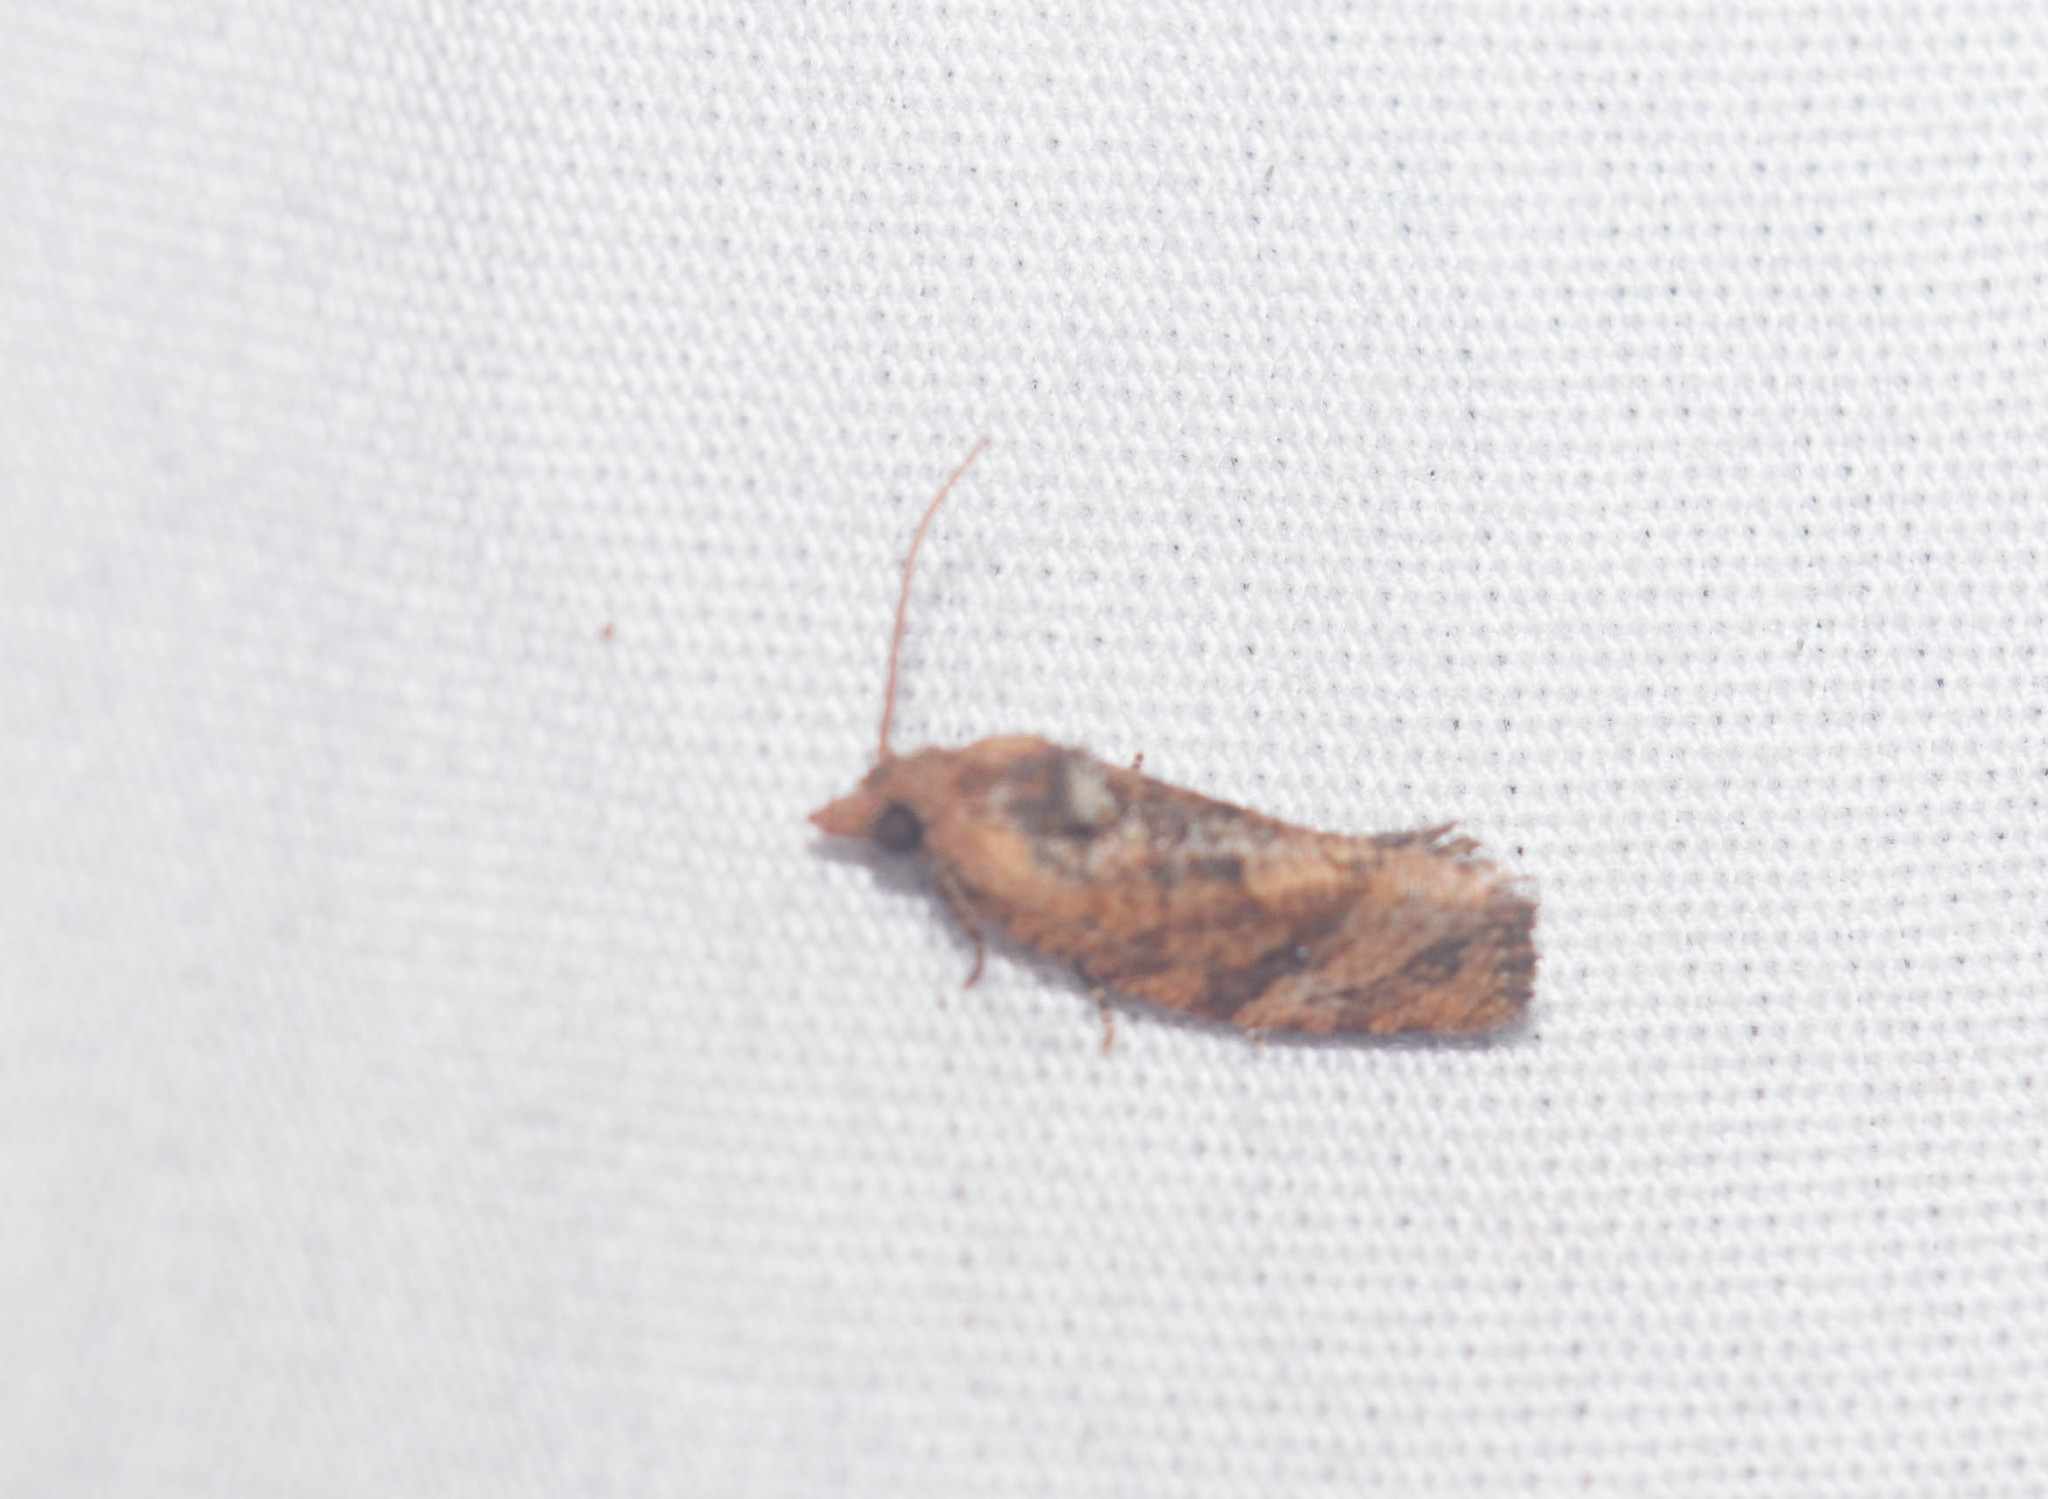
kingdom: Animalia
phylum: Arthropoda
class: Insecta
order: Lepidoptera
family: Tortricidae
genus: Cryptophlebia
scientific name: Cryptophlebia illepida
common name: Moth
